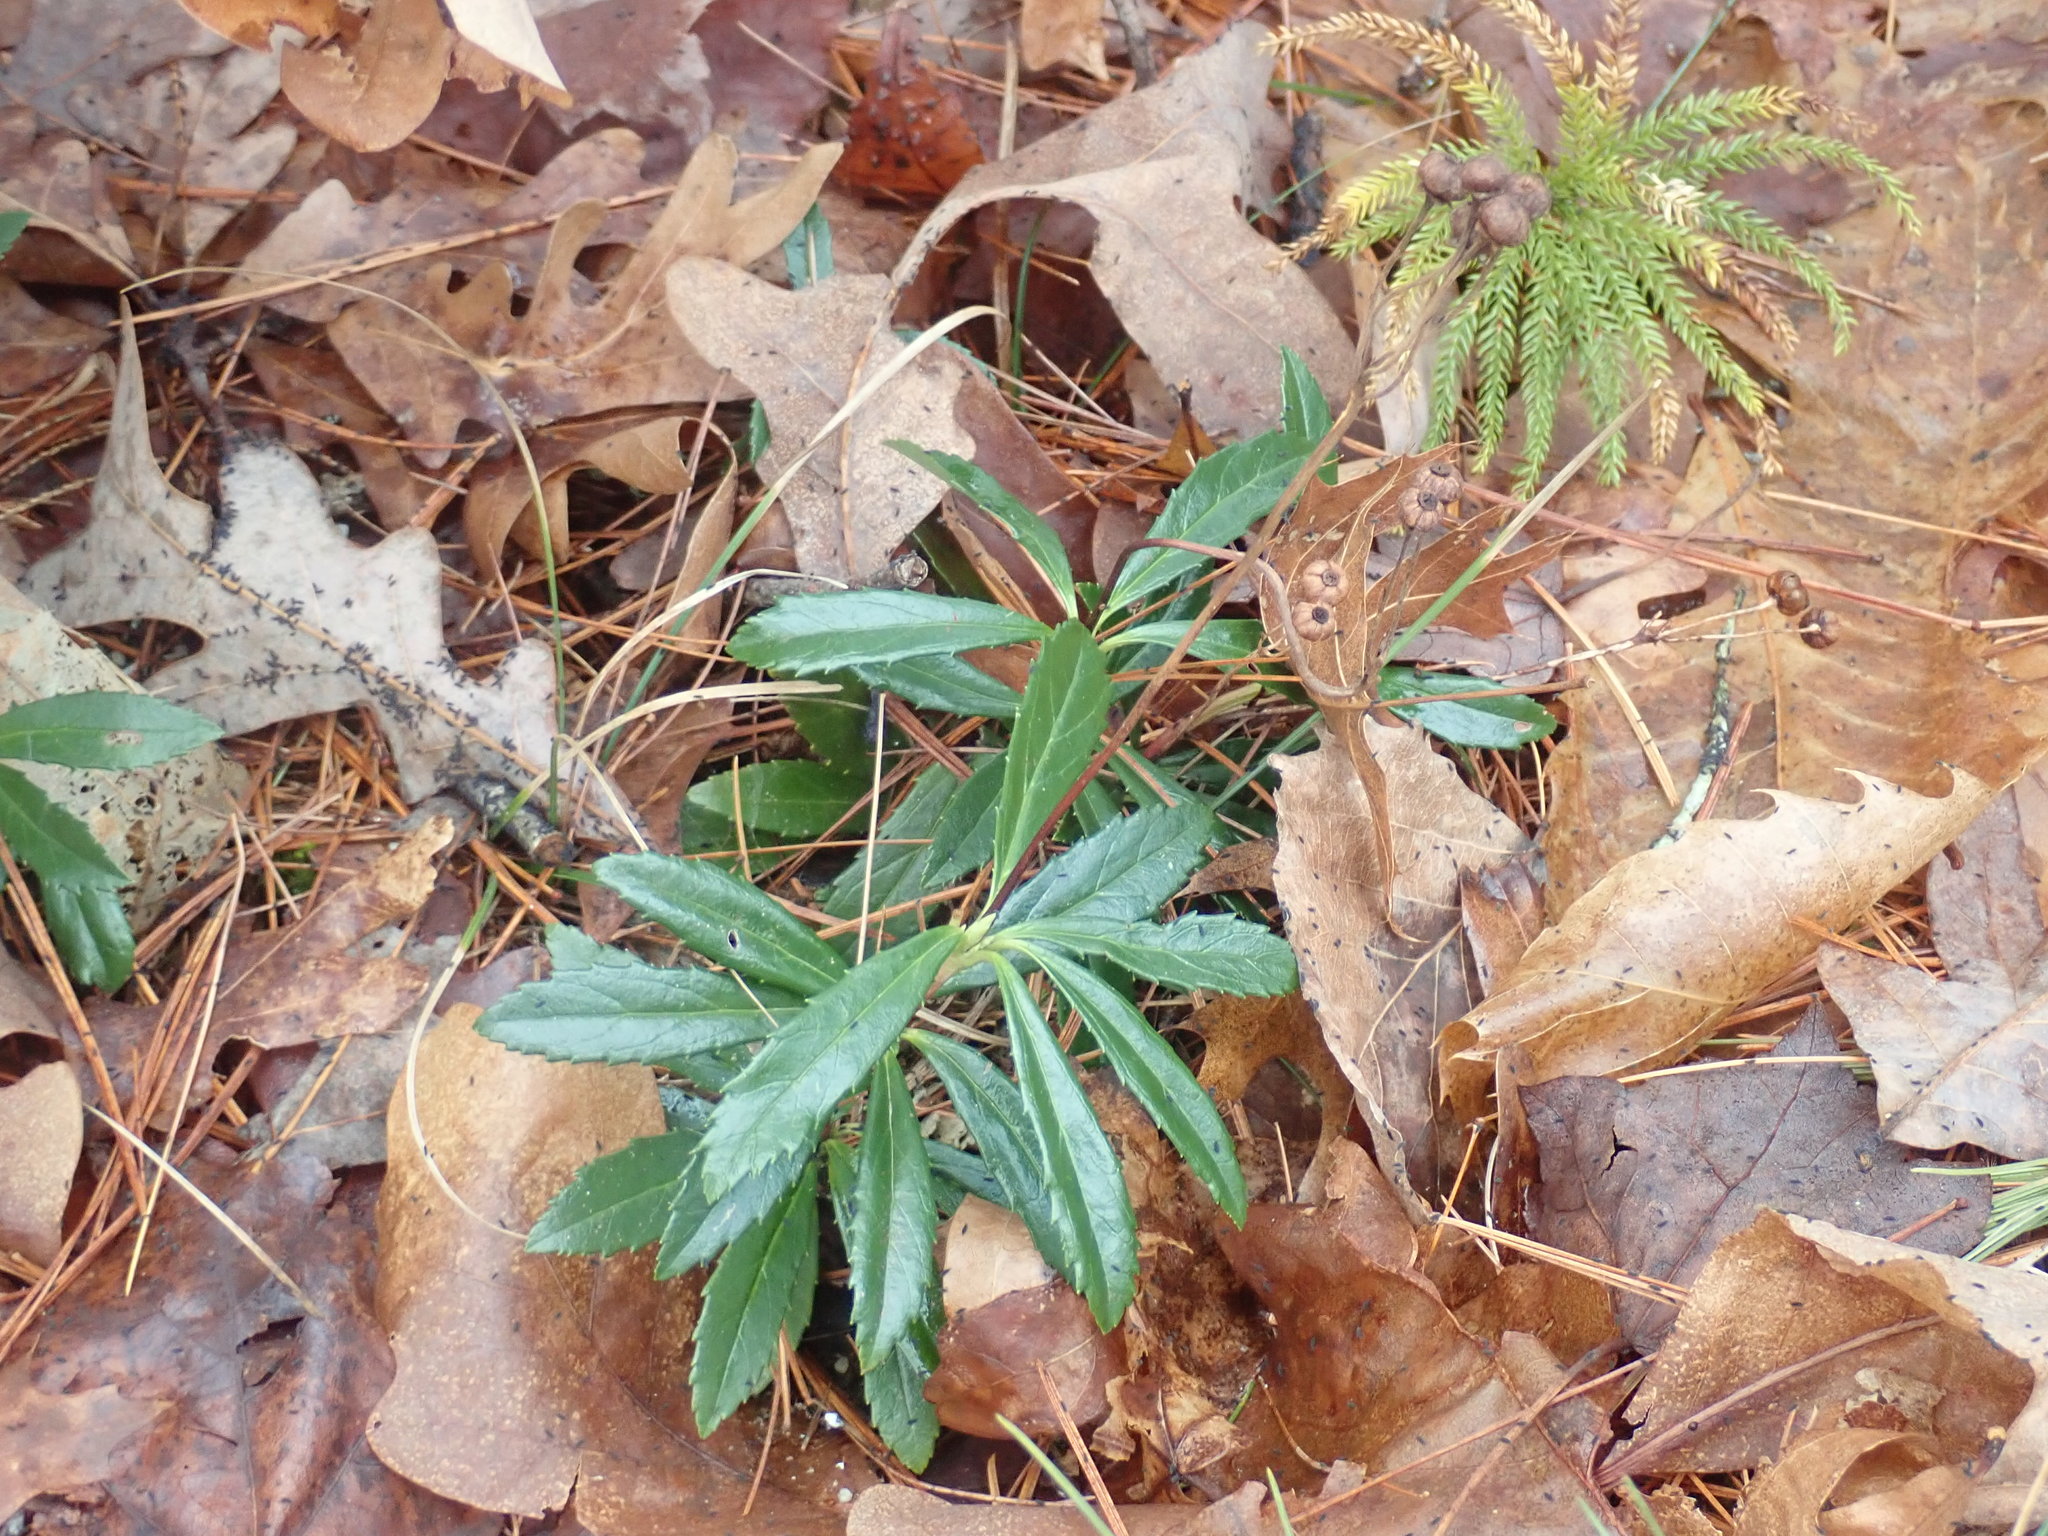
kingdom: Plantae
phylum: Tracheophyta
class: Magnoliopsida
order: Ericales
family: Ericaceae
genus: Chimaphila
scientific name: Chimaphila umbellata
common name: Pipsissewa
